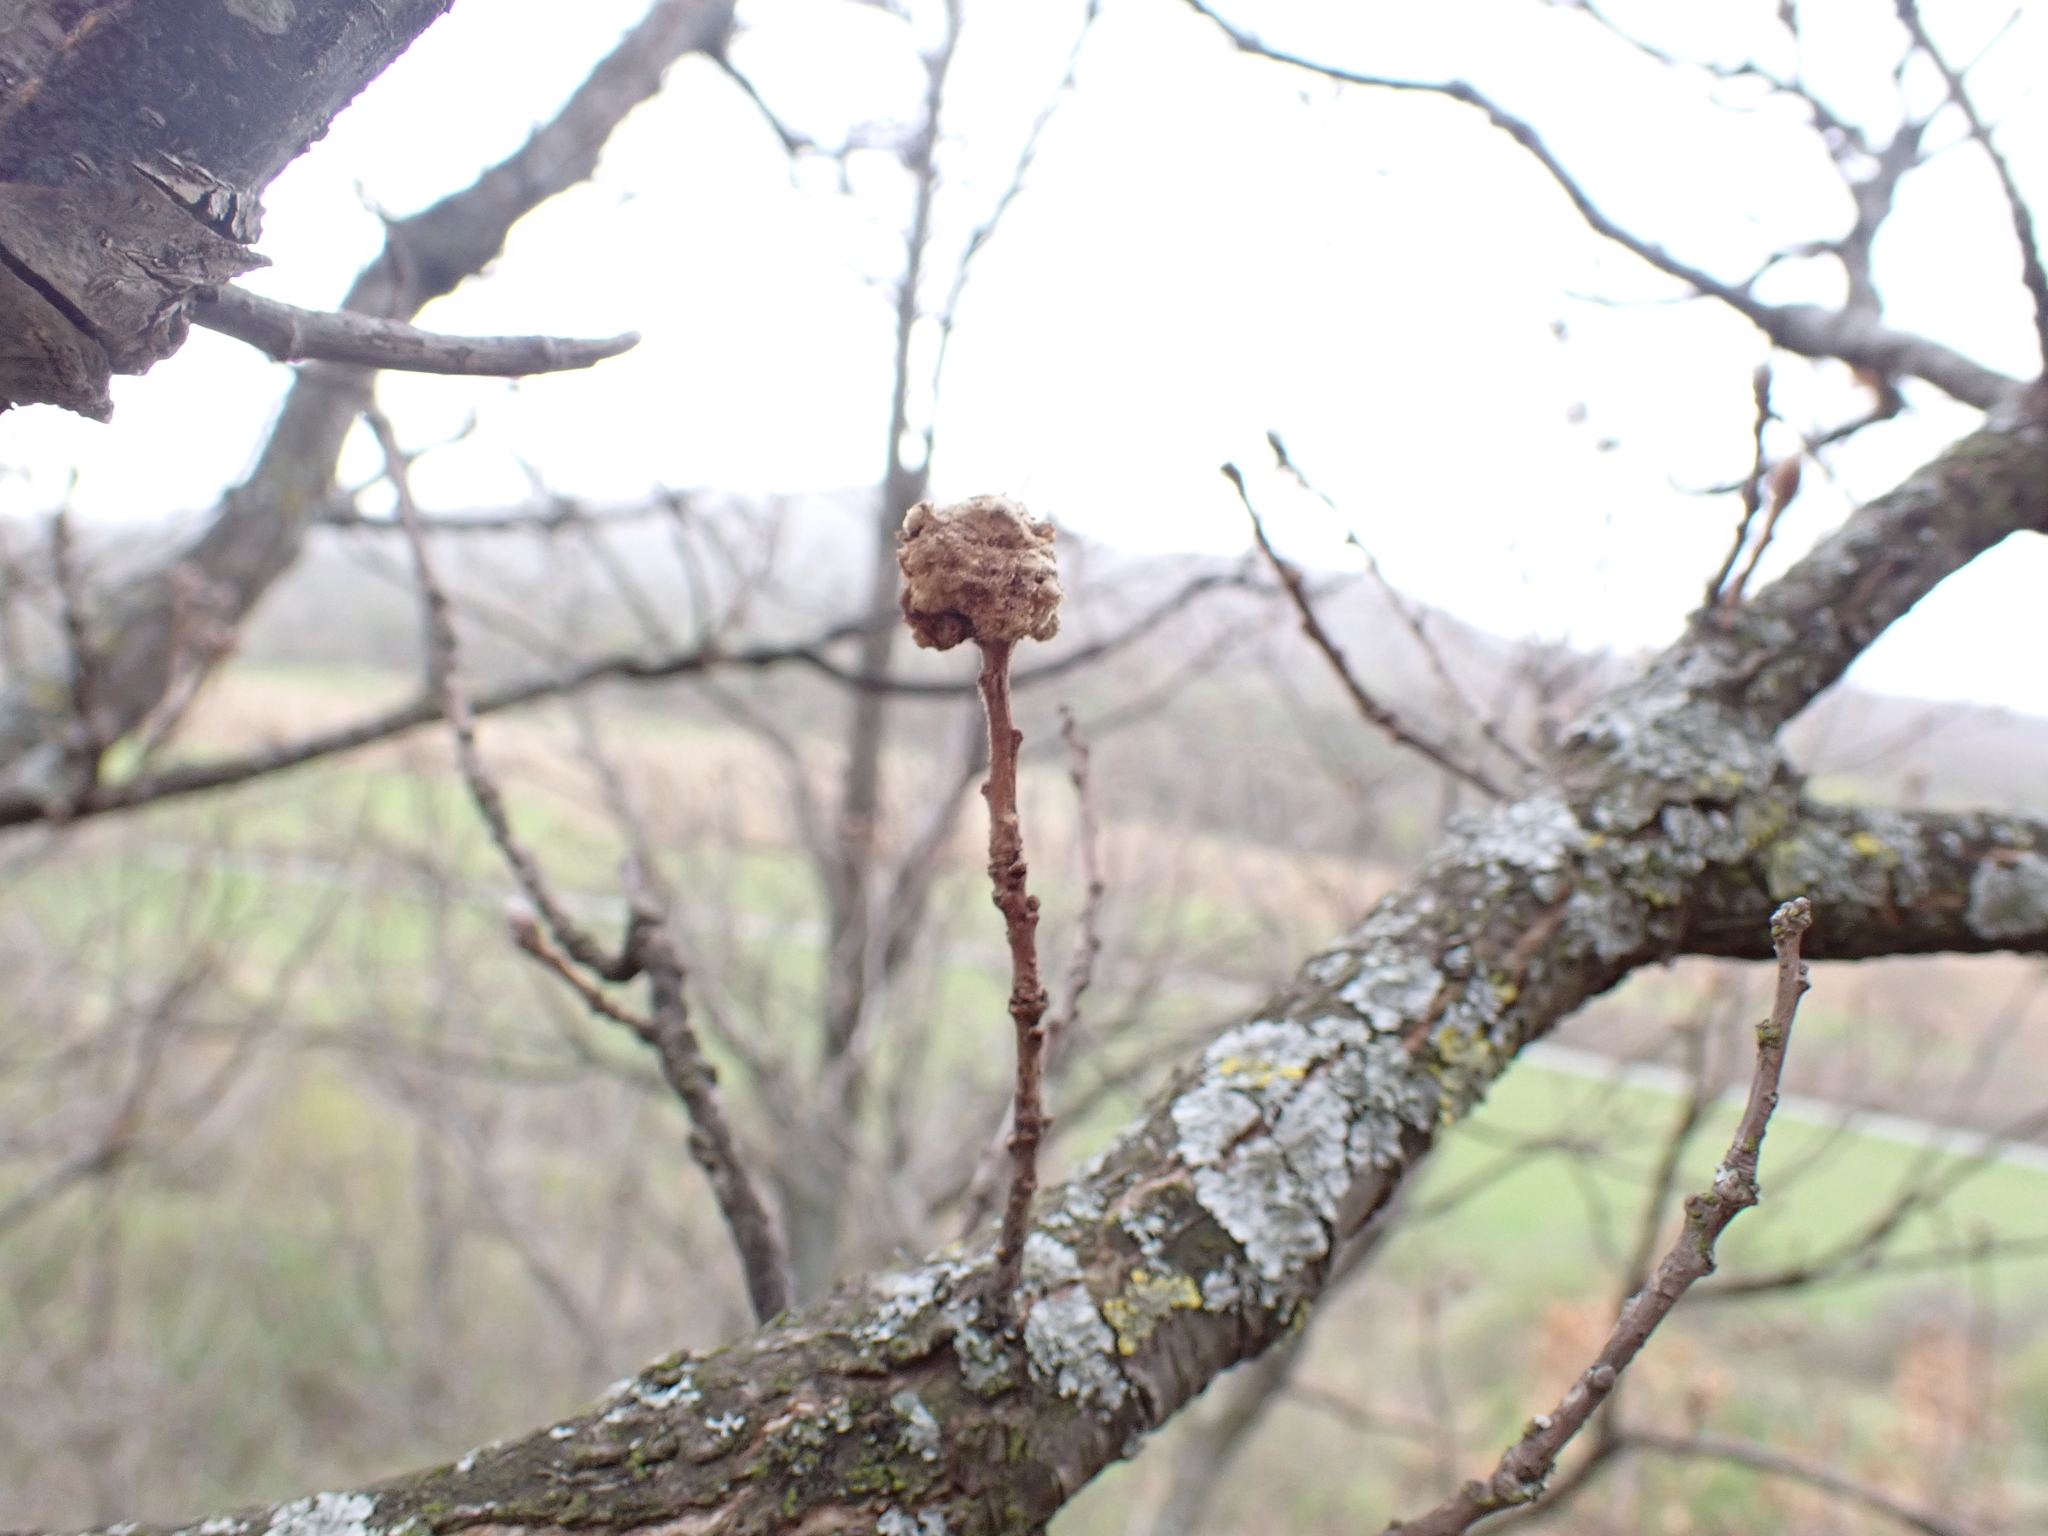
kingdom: Animalia
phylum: Arthropoda
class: Insecta
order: Hymenoptera
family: Cynipidae
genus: Andricus
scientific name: Andricus quercusramuli
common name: Cottonwool gall
